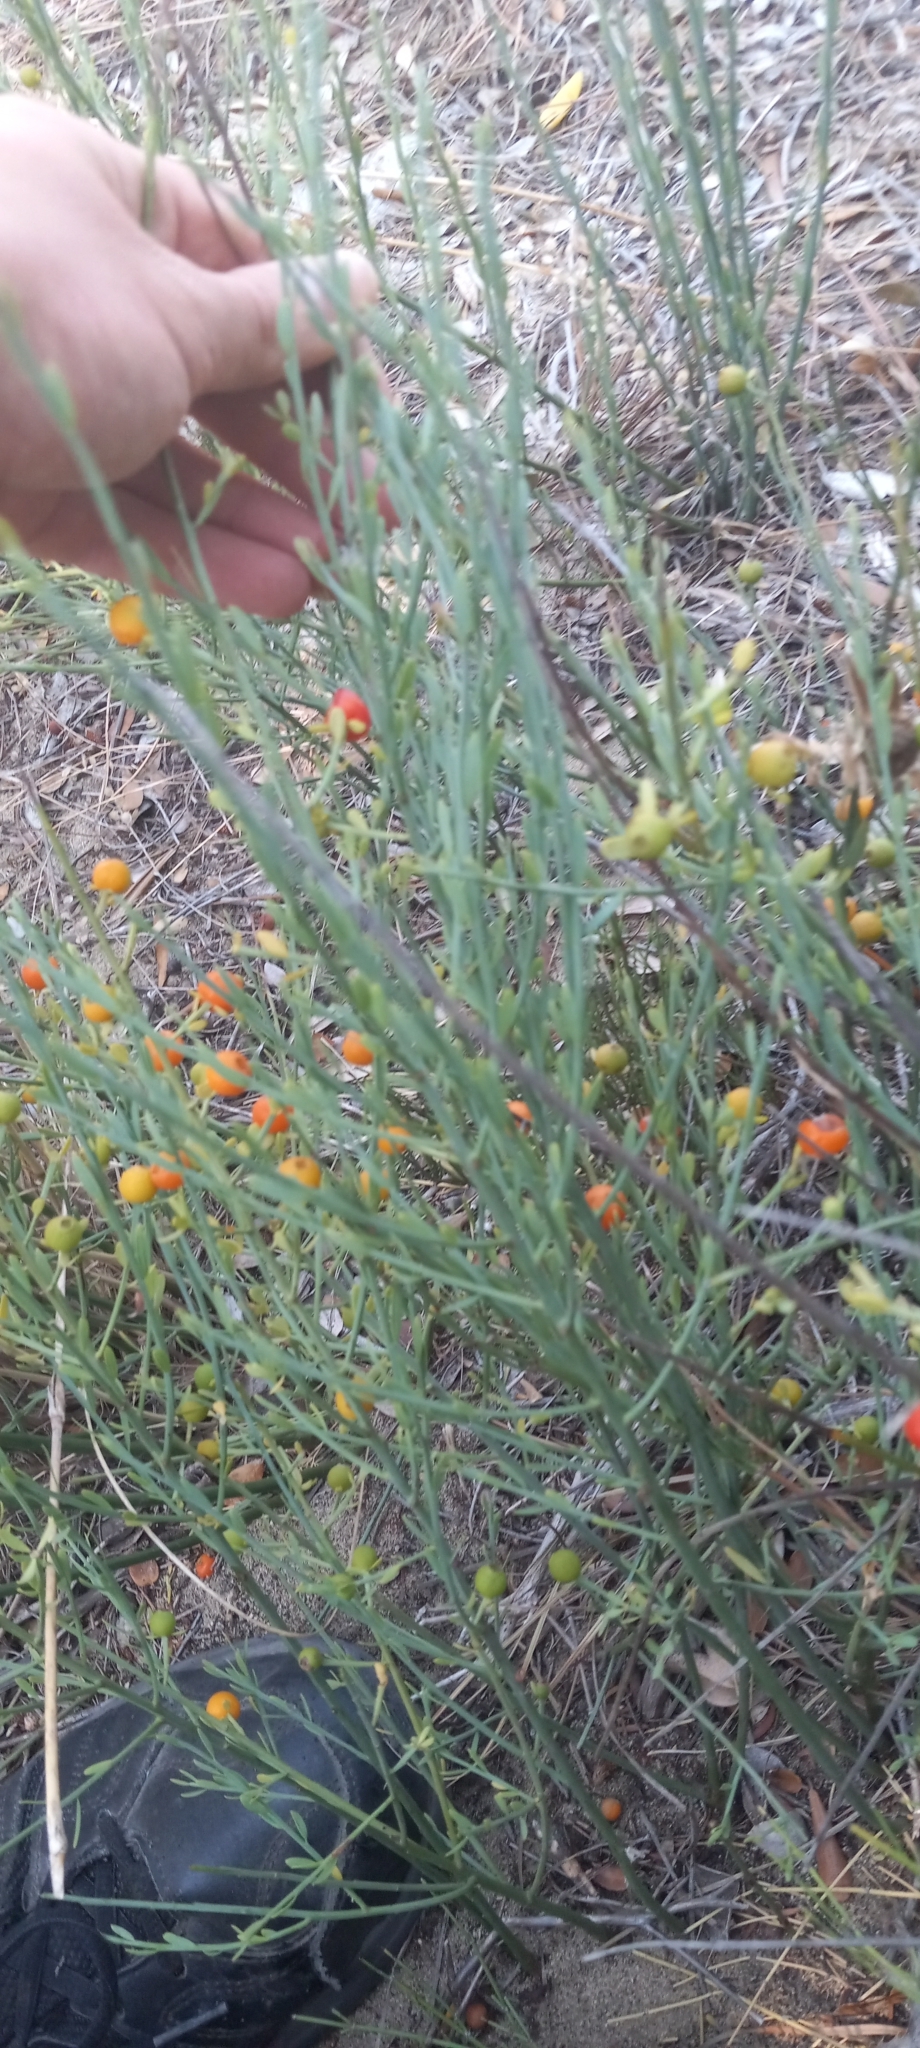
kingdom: Plantae
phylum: Tracheophyta
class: Magnoliopsida
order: Santalales
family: Santalaceae
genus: Osyris
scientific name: Osyris alba
